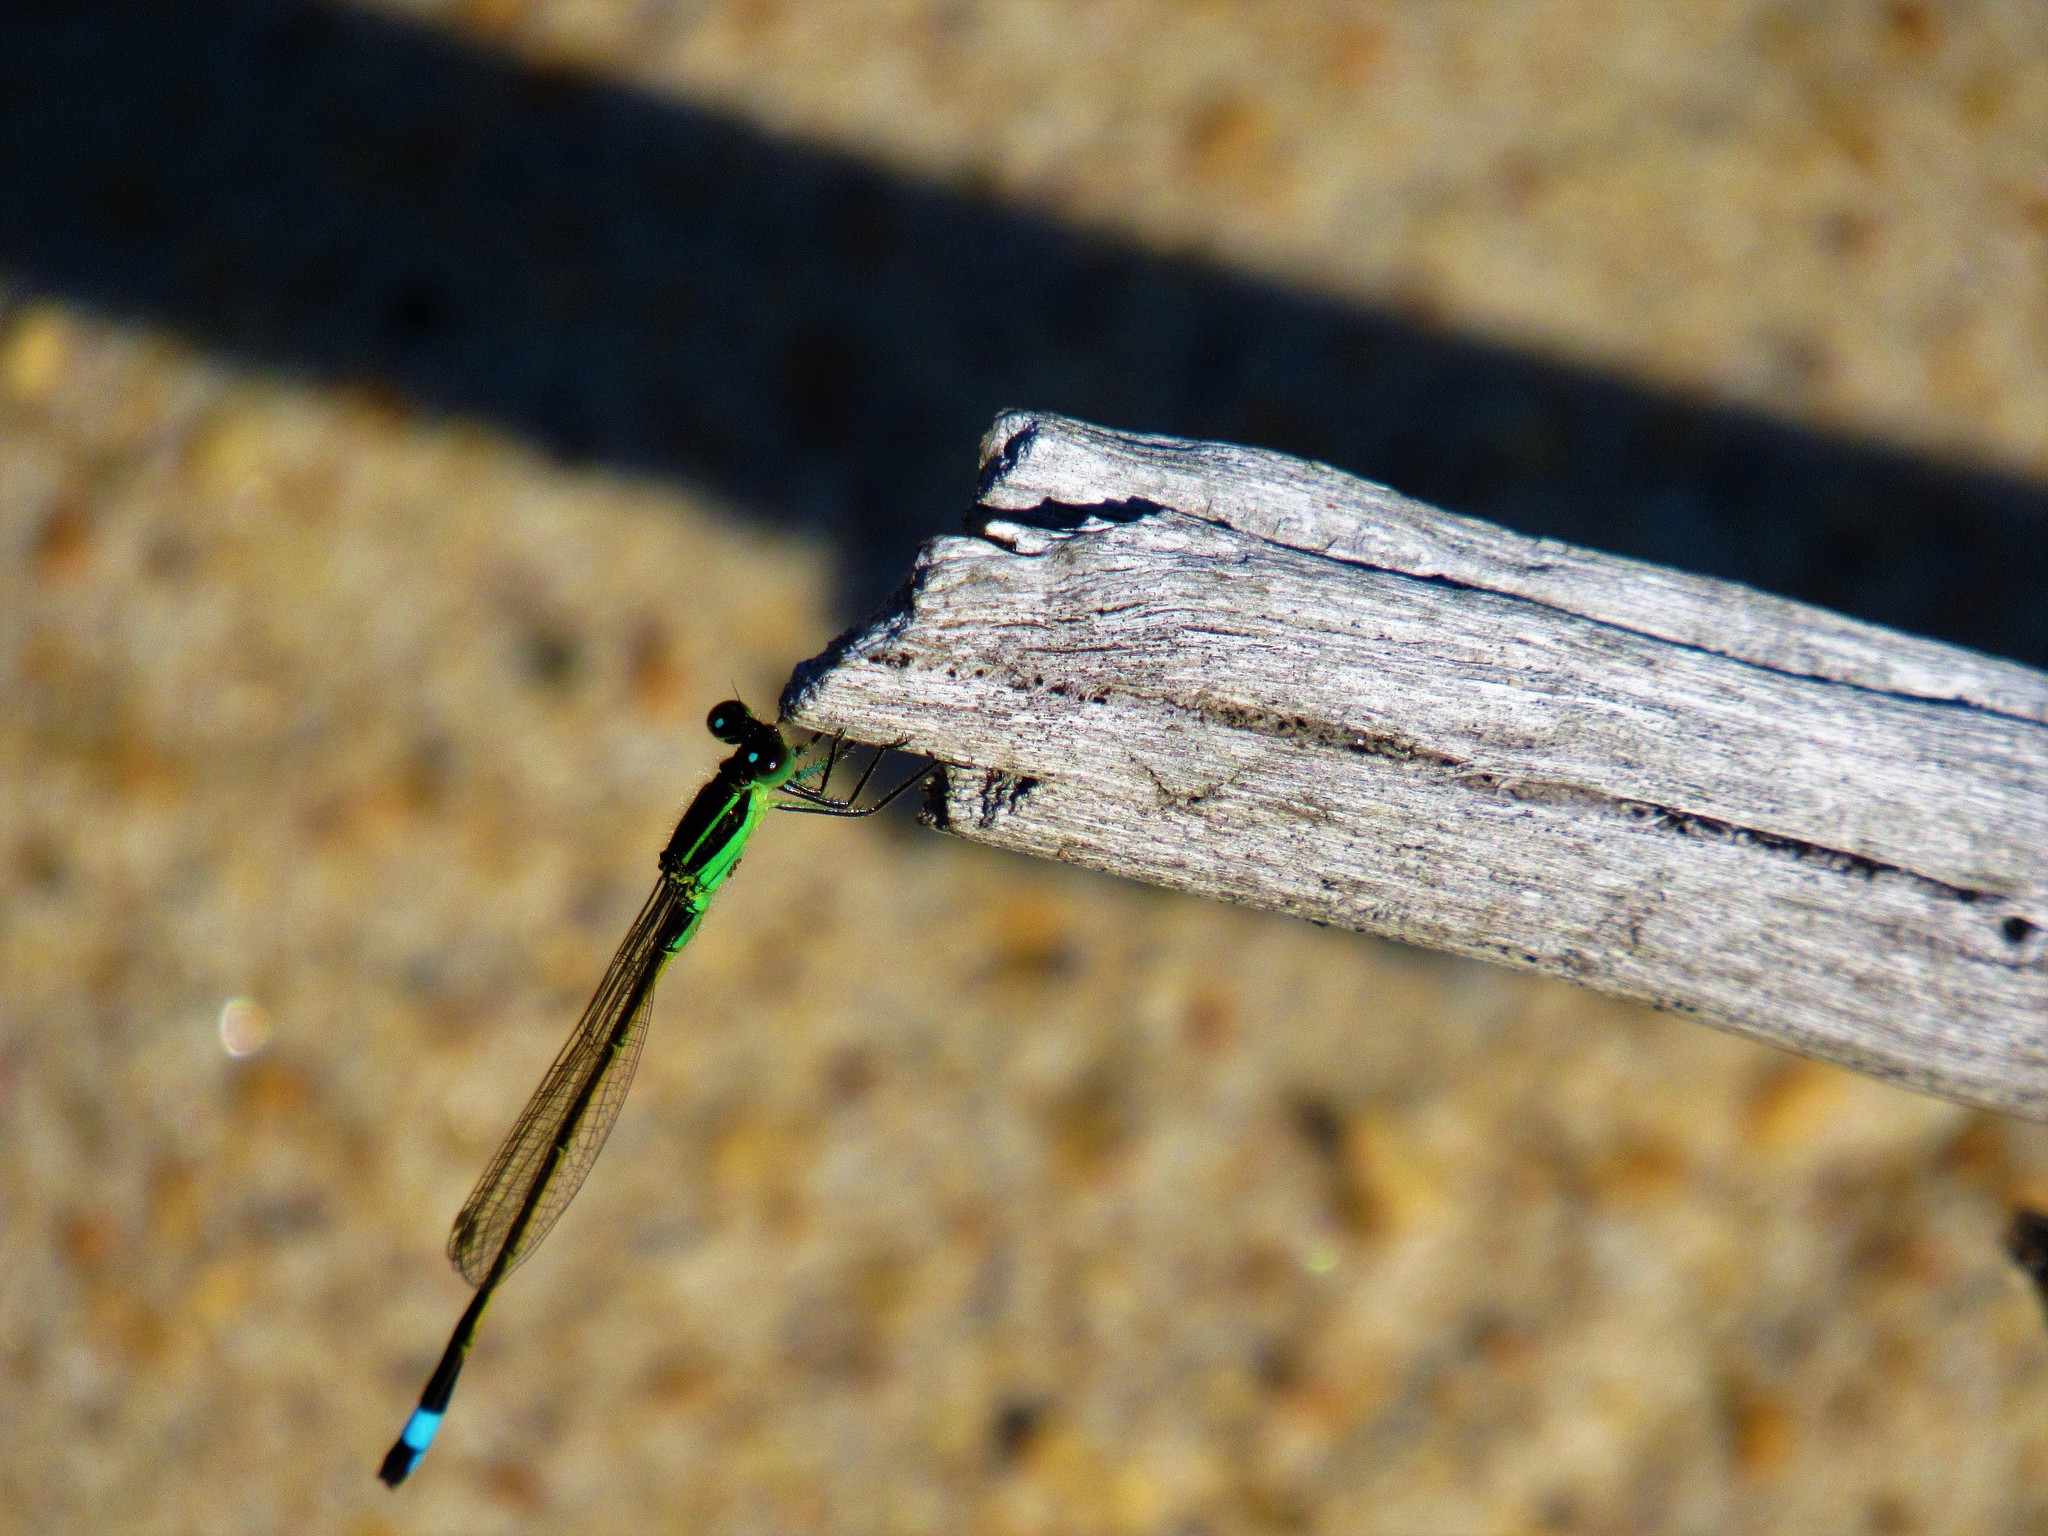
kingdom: Animalia
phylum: Arthropoda
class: Insecta
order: Odonata
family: Coenagrionidae
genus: Ischnura
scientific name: Ischnura ramburii
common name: Rambur's forktail
